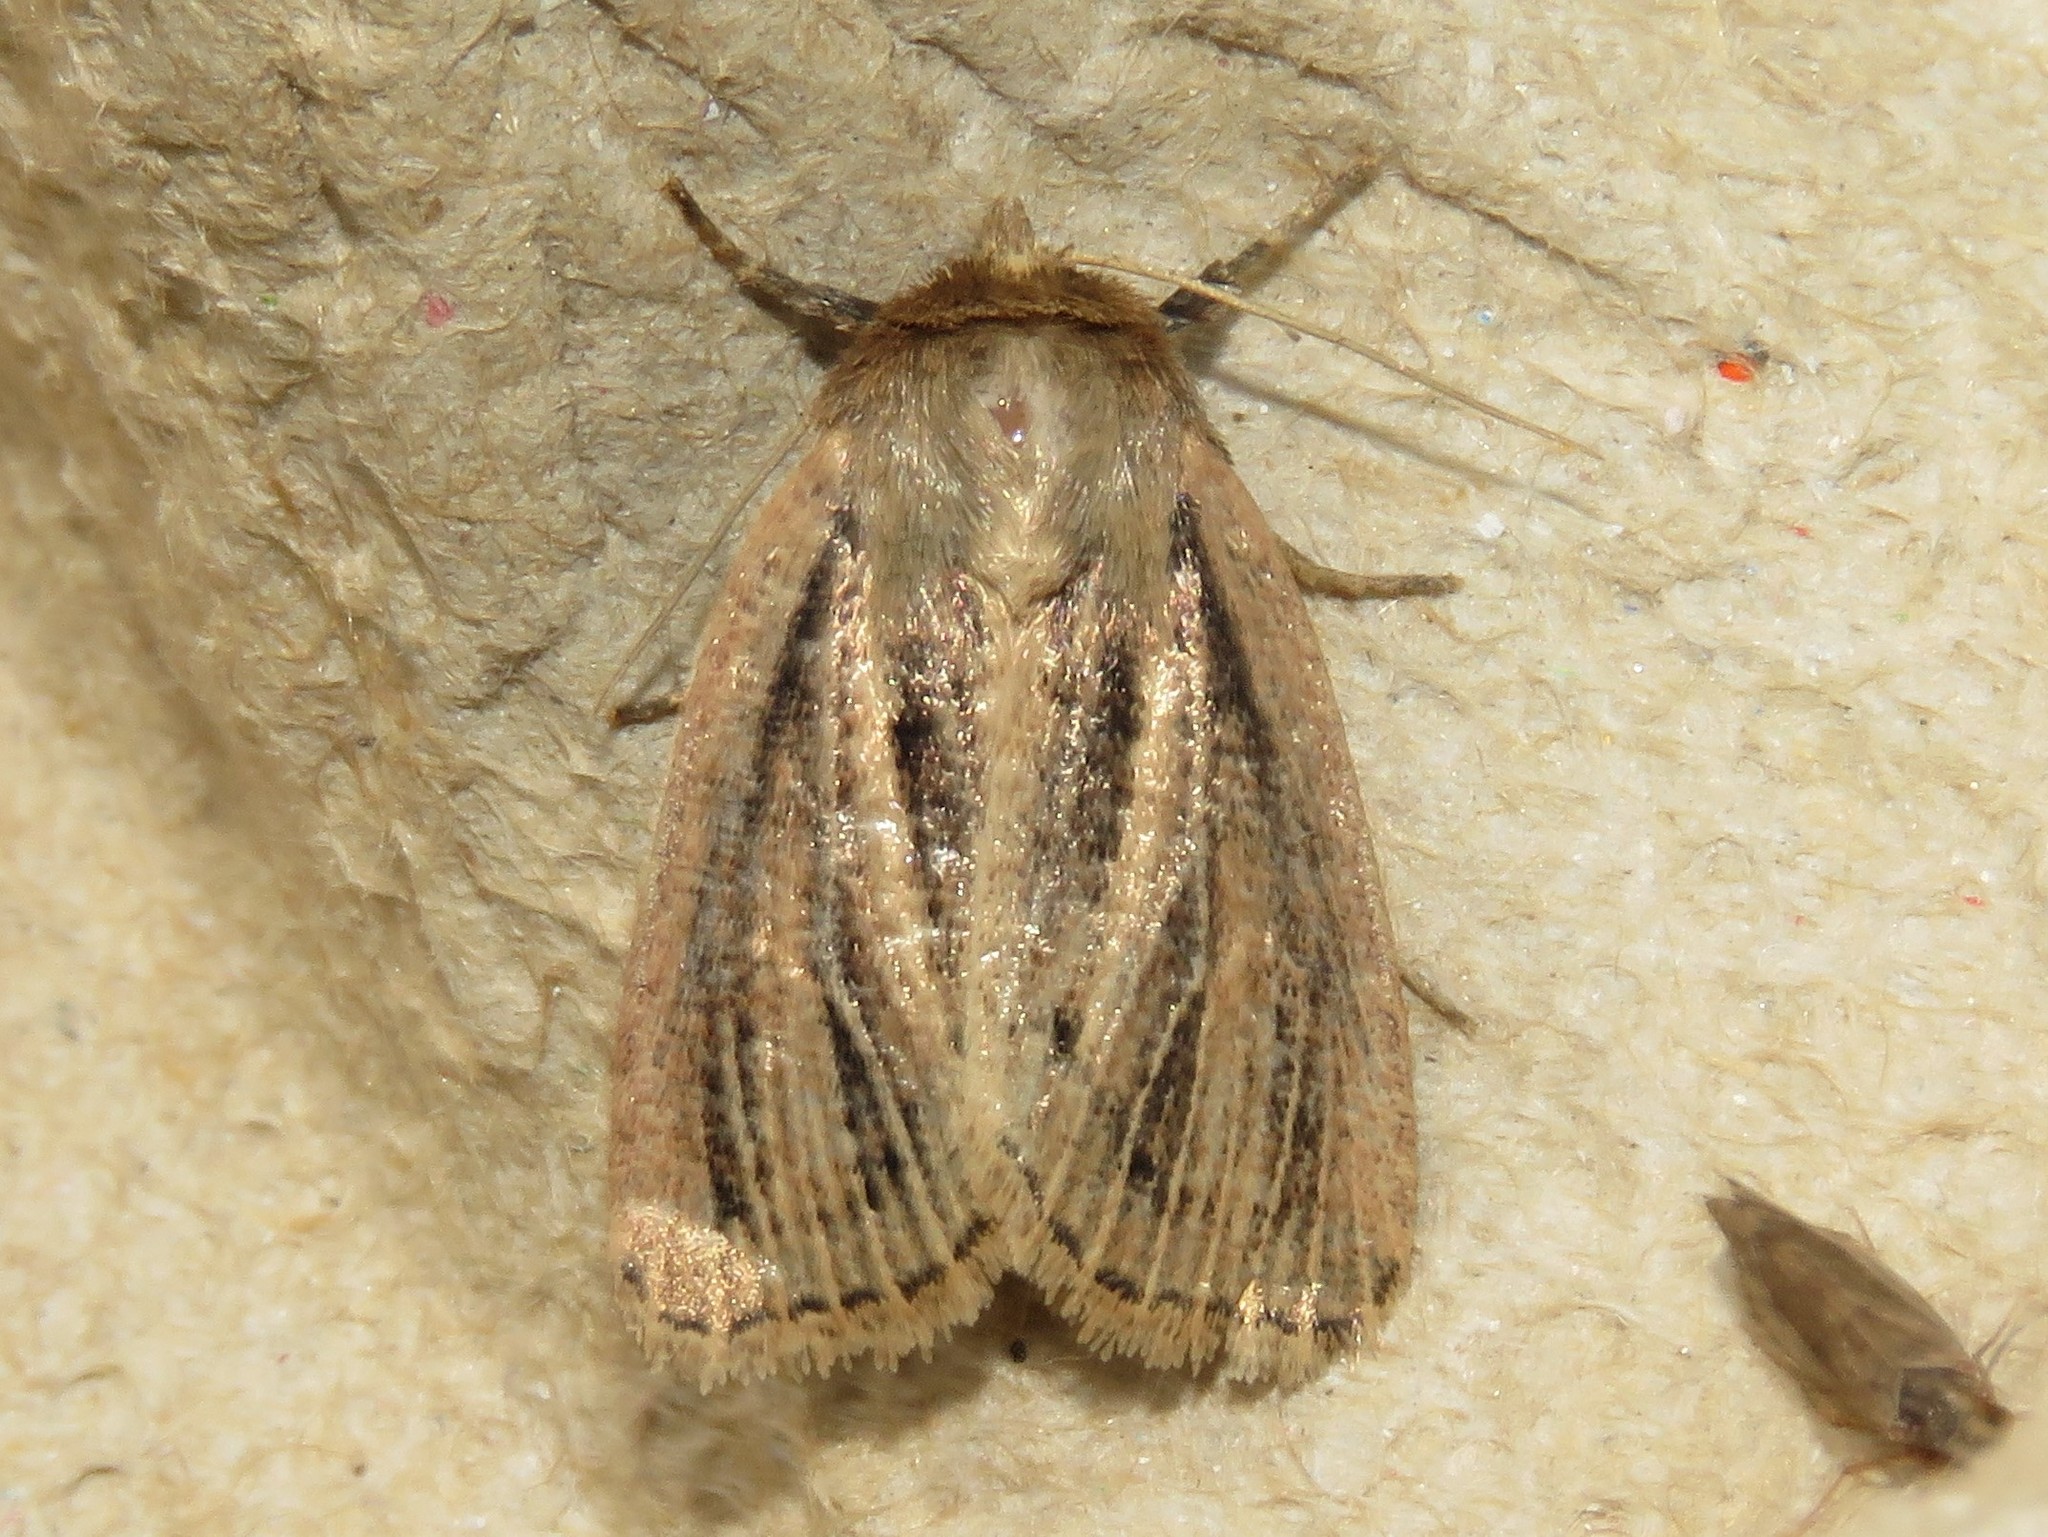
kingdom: Animalia
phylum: Arthropoda
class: Insecta
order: Lepidoptera
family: Noctuidae
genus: Hypocoena
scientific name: Hypocoena inquinata
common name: Tufted sedge moth
